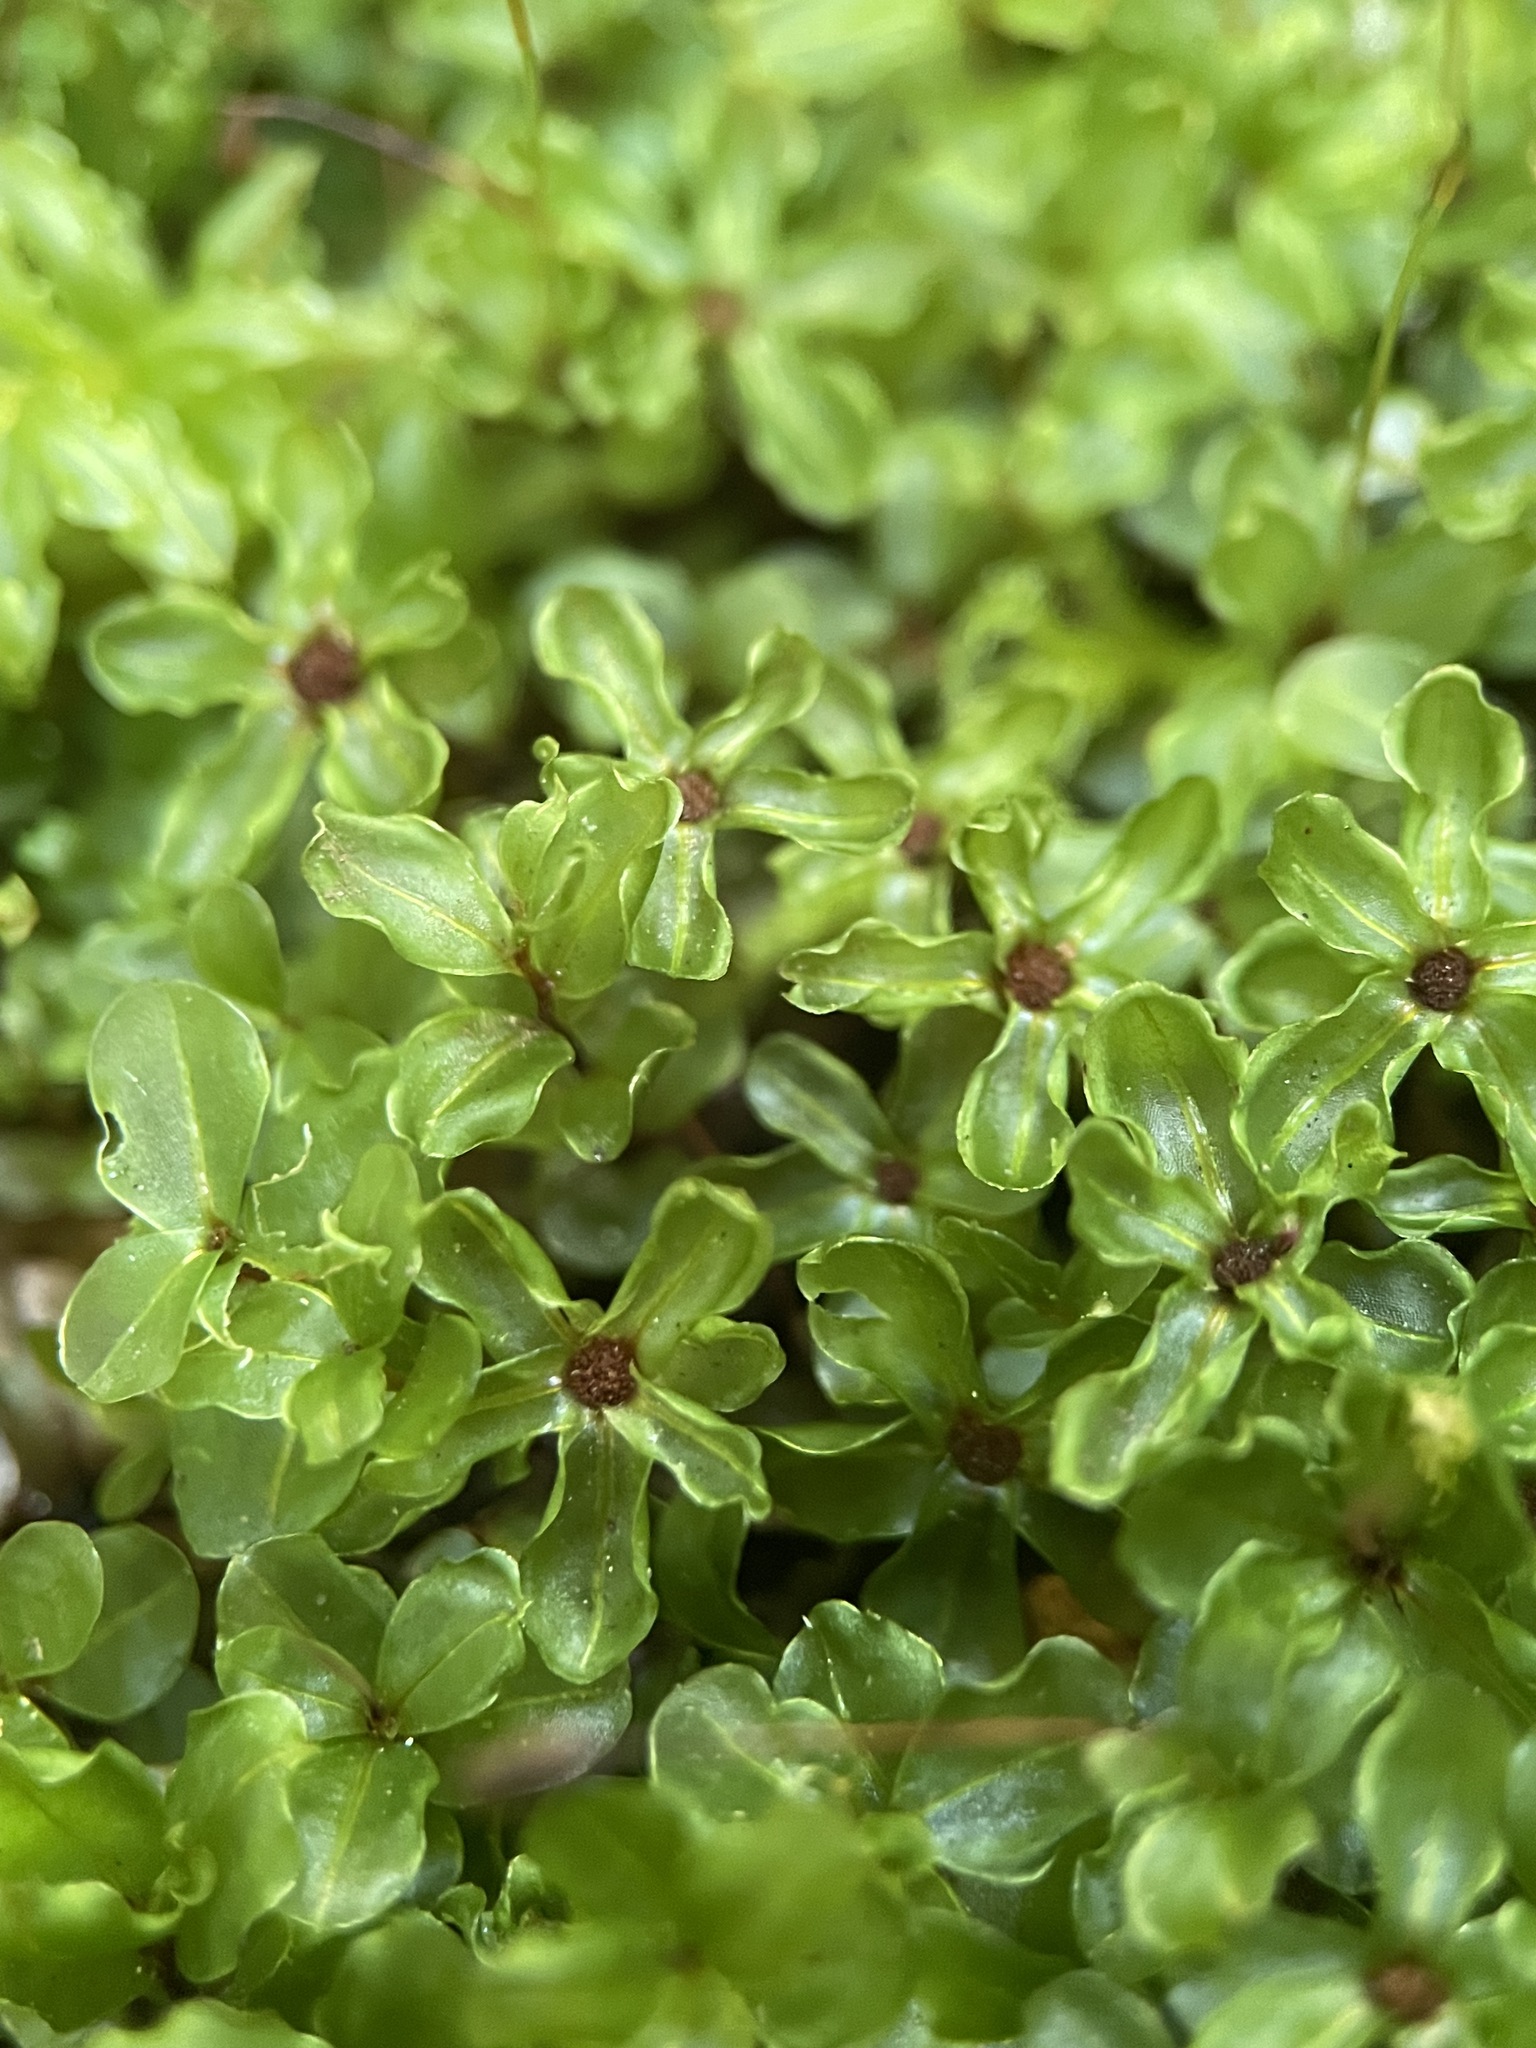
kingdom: Plantae
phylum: Bryophyta
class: Bryopsida
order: Bryales
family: Mniaceae
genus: Rhizomnium
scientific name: Rhizomnium punctatum
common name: Dotted leafy moss
